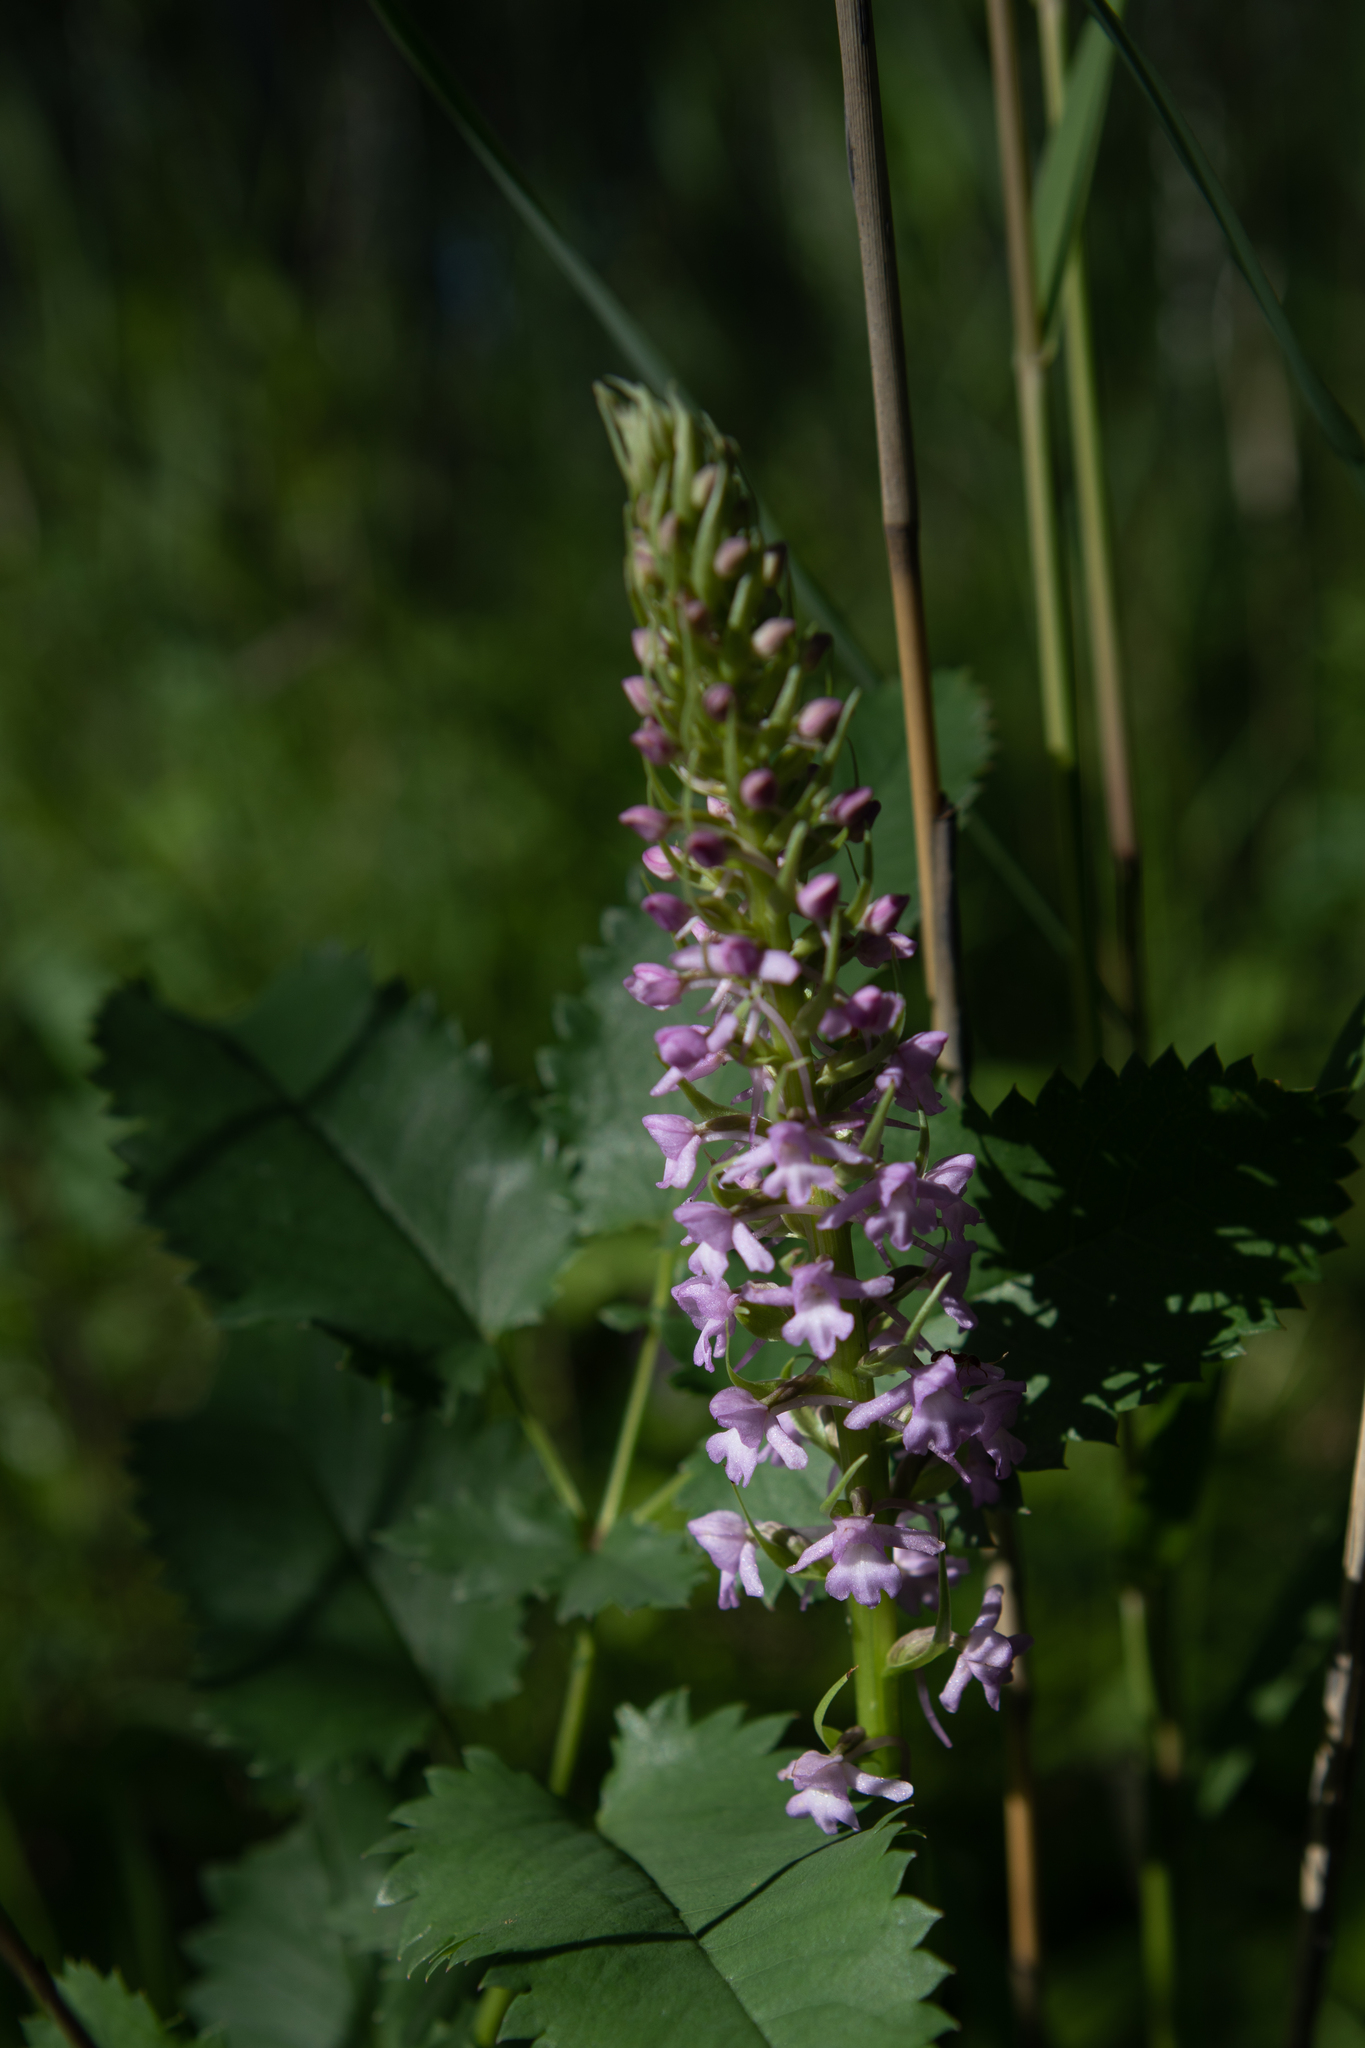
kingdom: Plantae
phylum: Tracheophyta
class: Liliopsida
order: Asparagales
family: Orchidaceae
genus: Gymnadenia
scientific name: Gymnadenia conopsea
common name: Fragrant orchid
